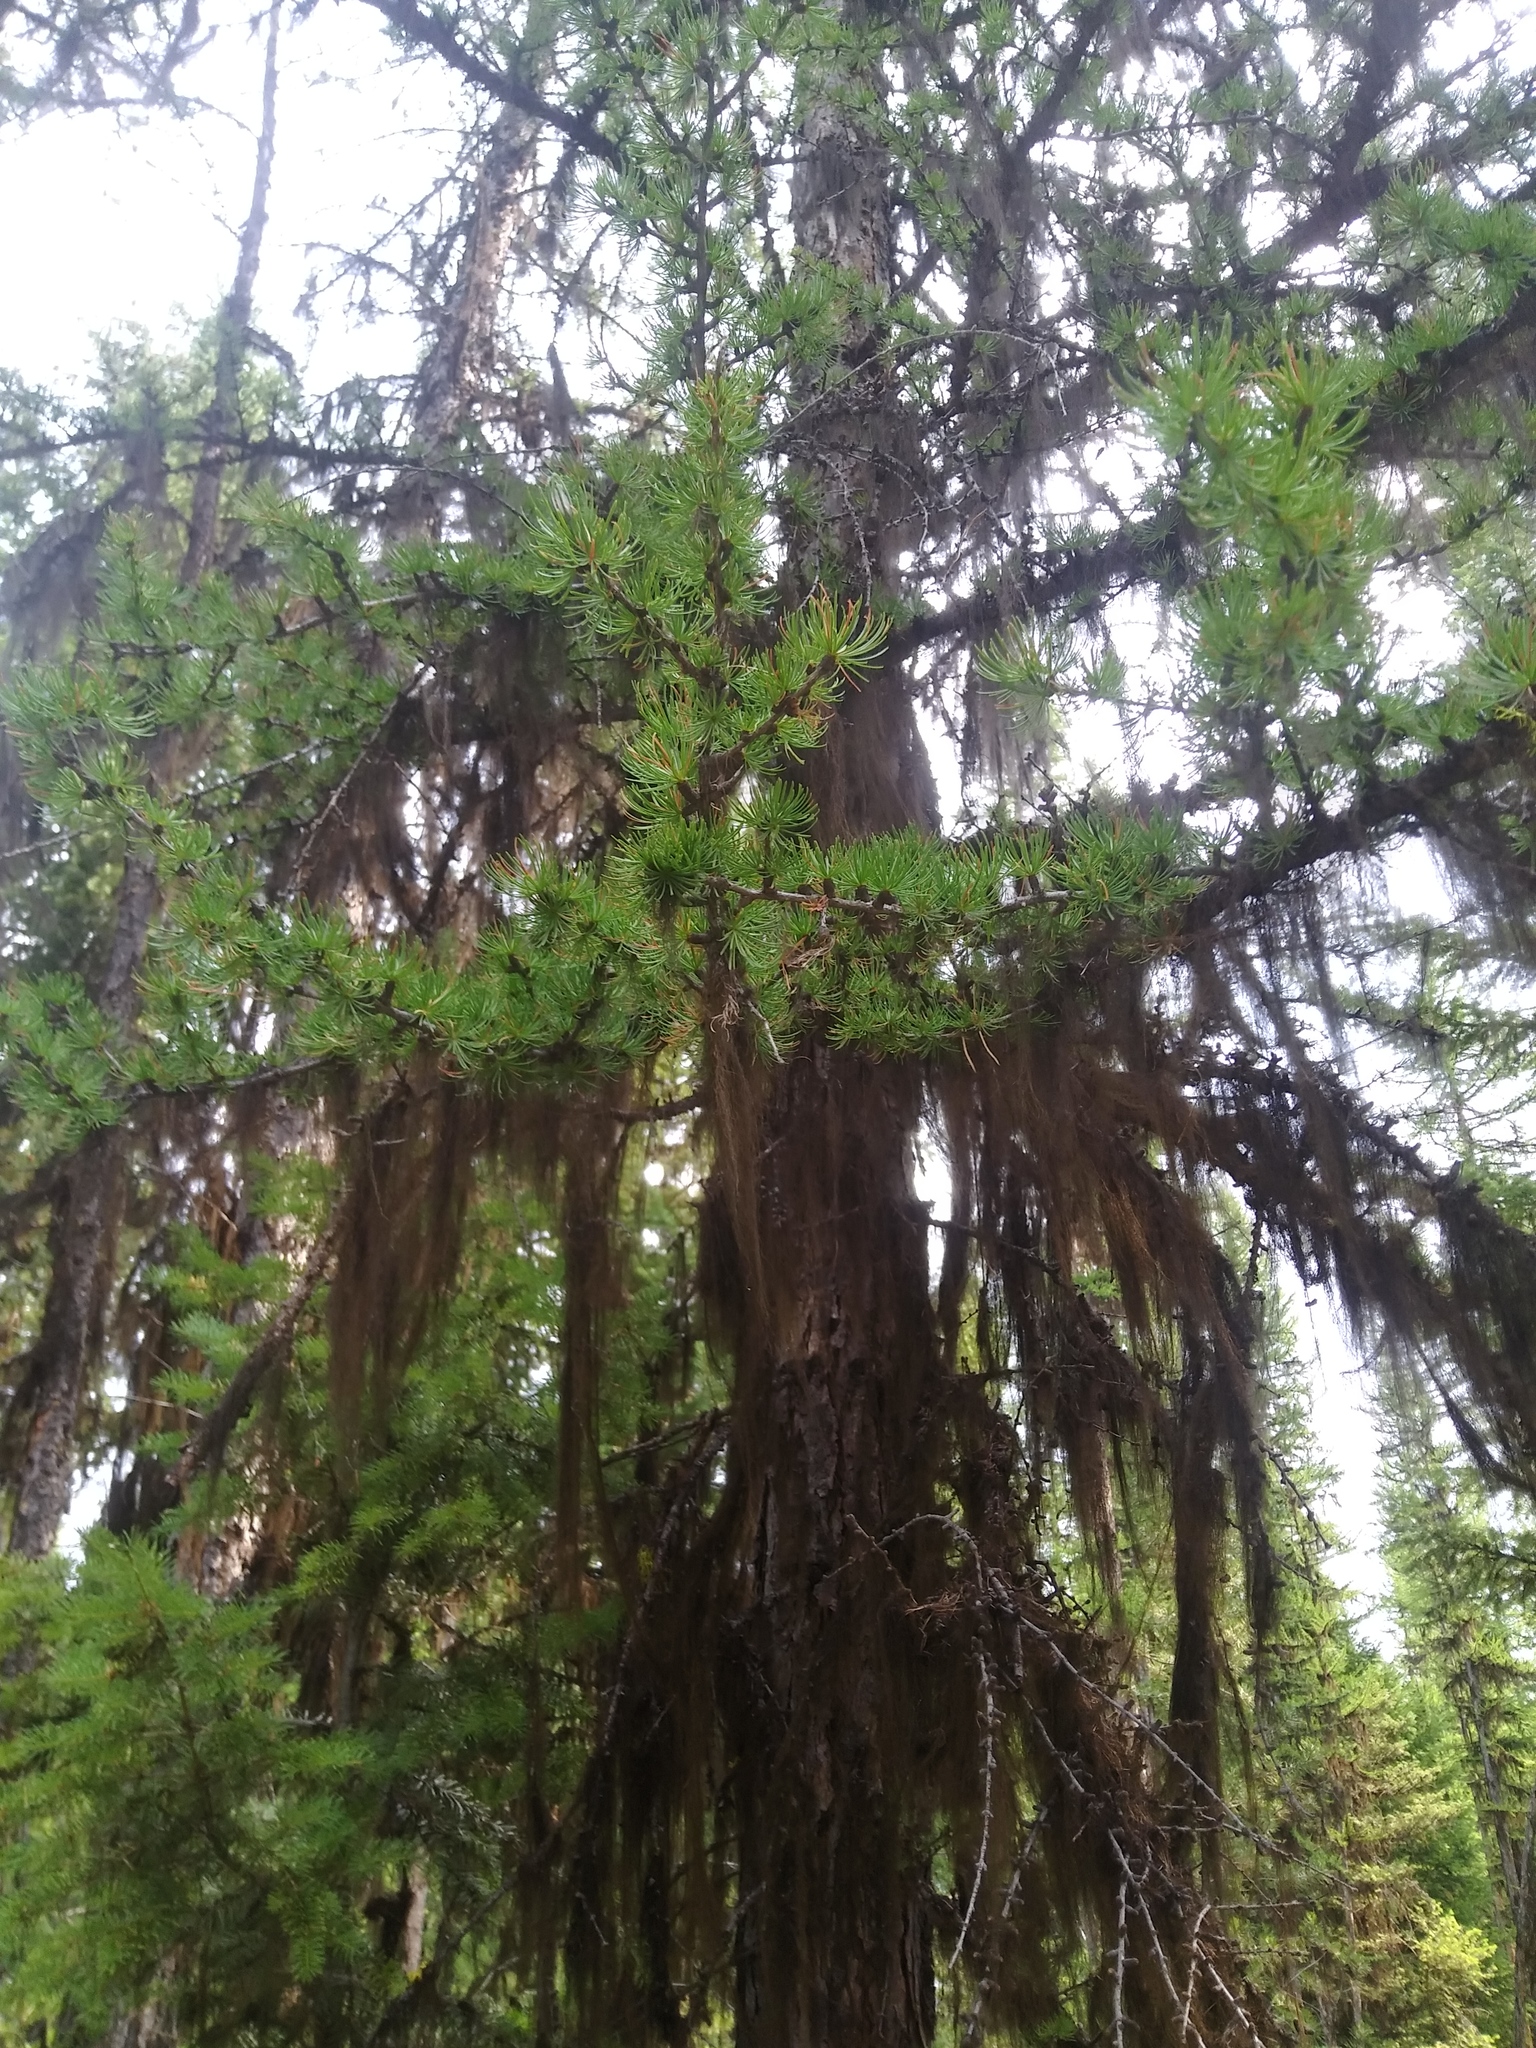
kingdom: Plantae
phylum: Tracheophyta
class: Pinopsida
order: Pinales
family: Pinaceae
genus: Larix
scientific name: Larix occidentalis
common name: Western larch
